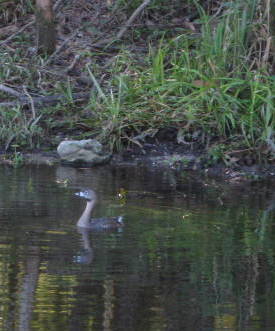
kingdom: Animalia
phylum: Chordata
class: Aves
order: Podicipediformes
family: Podicipedidae
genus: Podilymbus
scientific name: Podilymbus podiceps
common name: Pied-billed grebe
